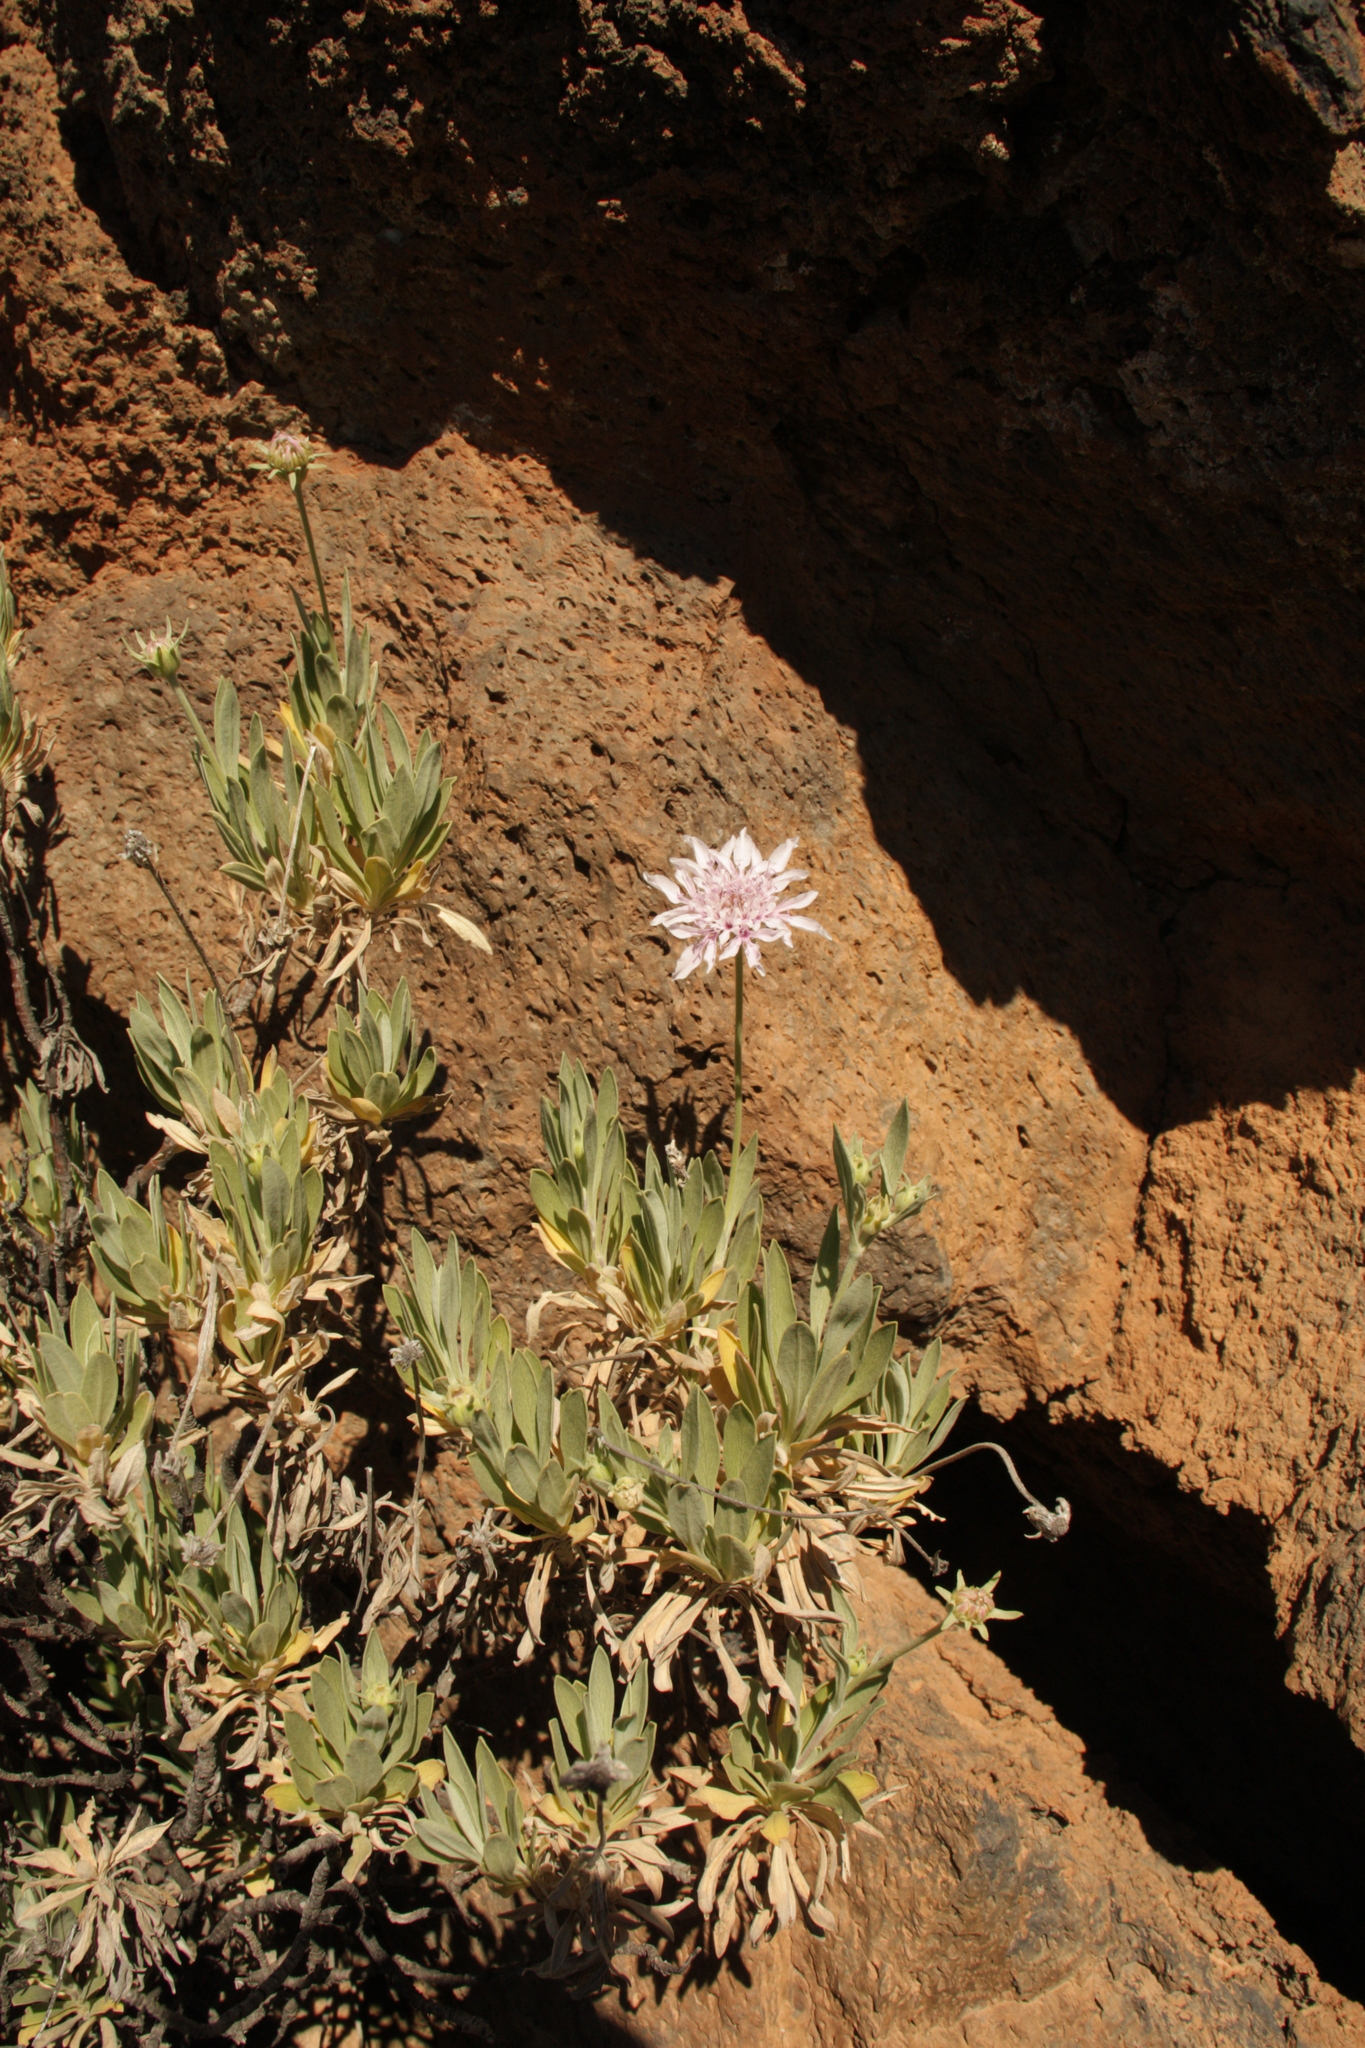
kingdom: Plantae
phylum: Tracheophyta
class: Magnoliopsida
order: Dipsacales
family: Caprifoliaceae
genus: Pterocephalus
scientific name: Pterocephalus lasiospermus
